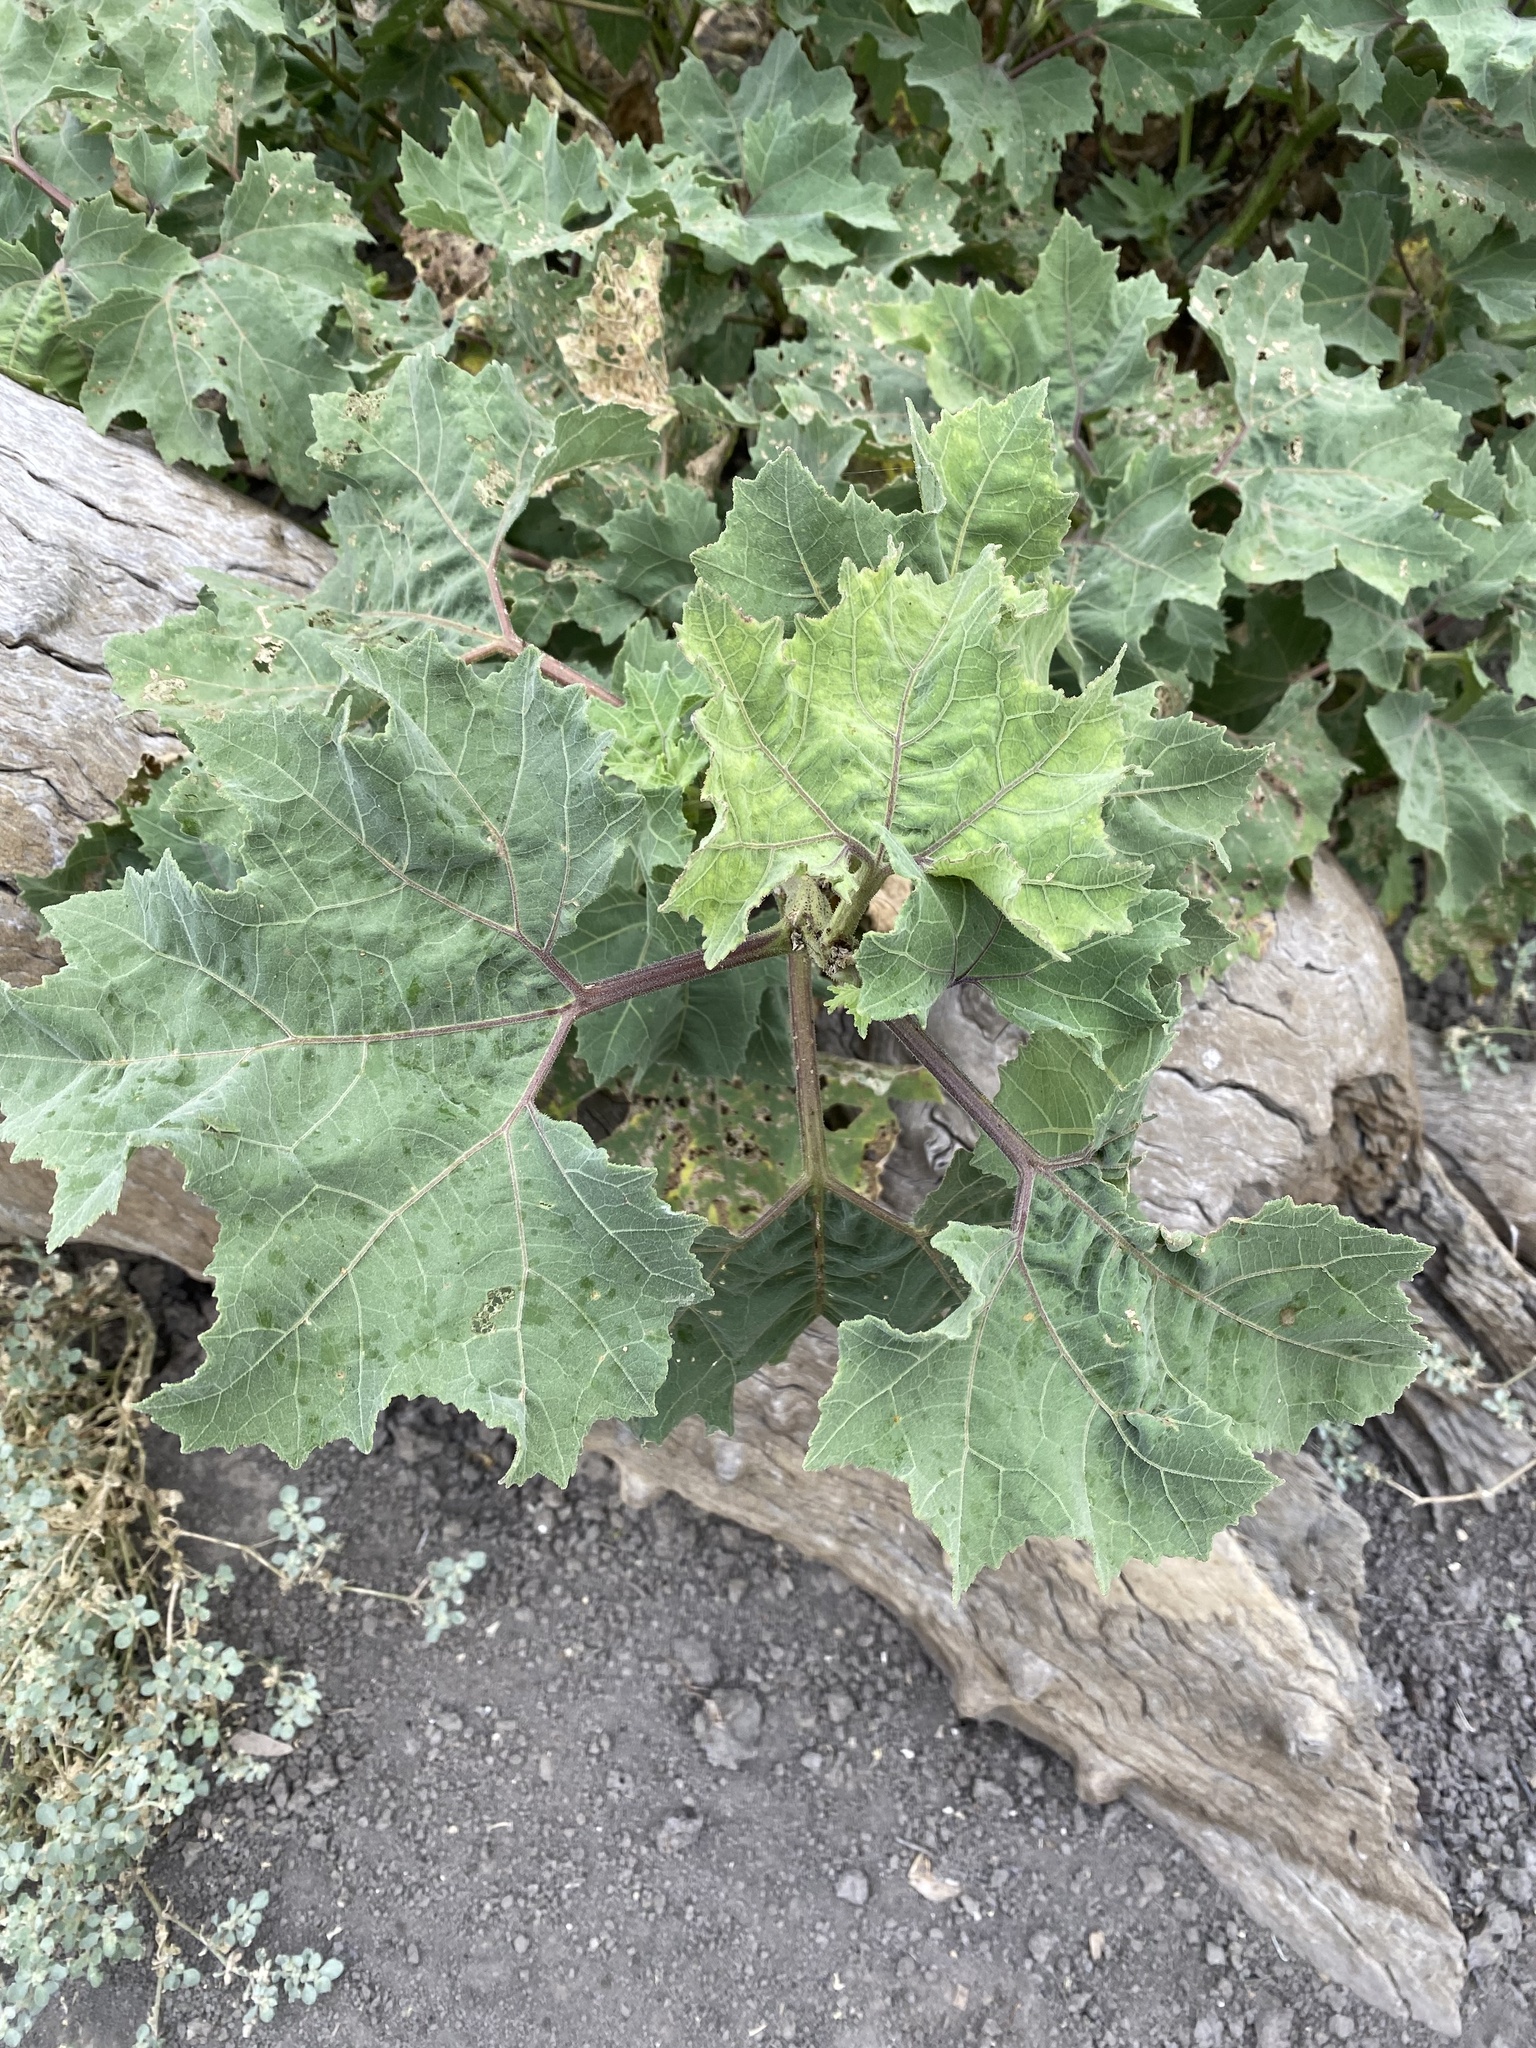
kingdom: Plantae
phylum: Tracheophyta
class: Magnoliopsida
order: Asterales
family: Asteraceae
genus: Xanthium
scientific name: Xanthium strumarium
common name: Rough cocklebur
